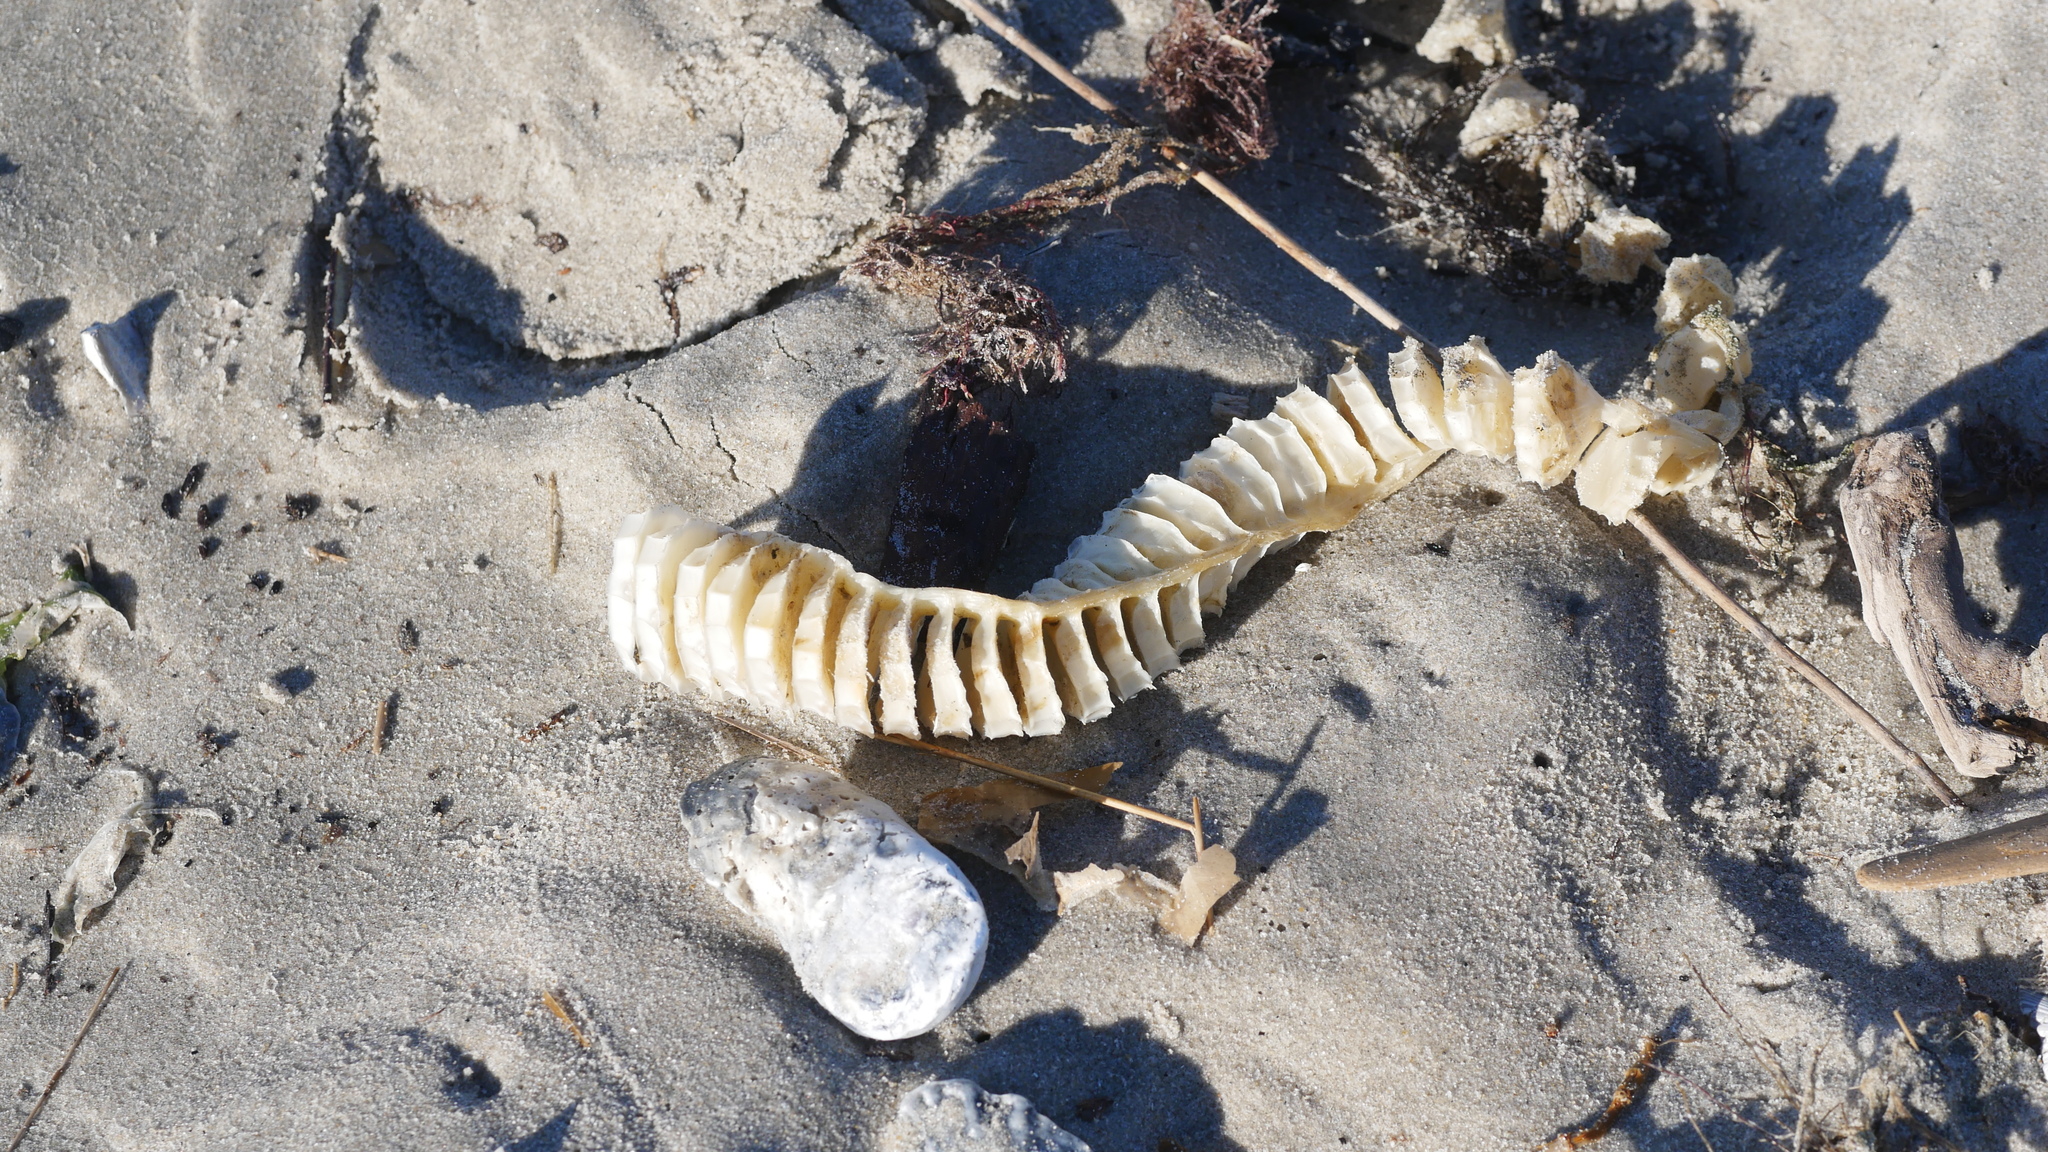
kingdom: Animalia
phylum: Mollusca
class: Gastropoda
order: Neogastropoda
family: Busyconidae
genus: Busycon
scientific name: Busycon carica
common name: Knobbed whelk
